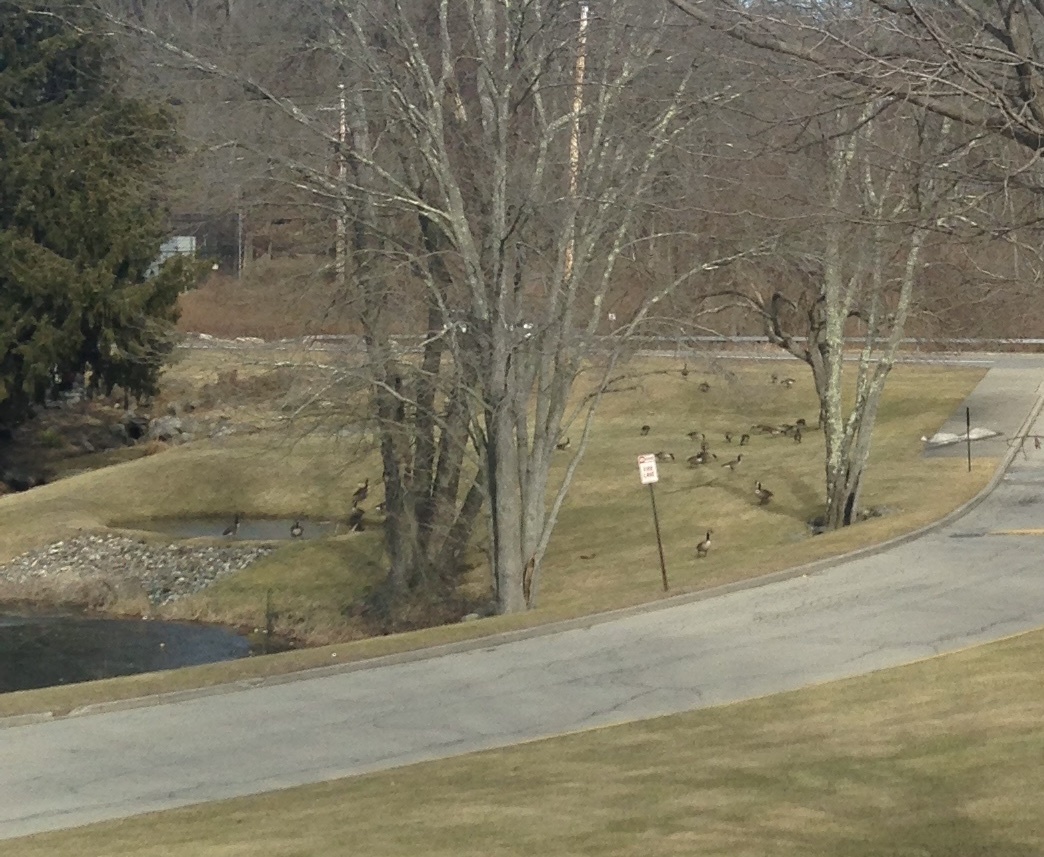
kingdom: Animalia
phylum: Chordata
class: Aves
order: Anseriformes
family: Anatidae
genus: Branta
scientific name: Branta canadensis
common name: Canada goose
